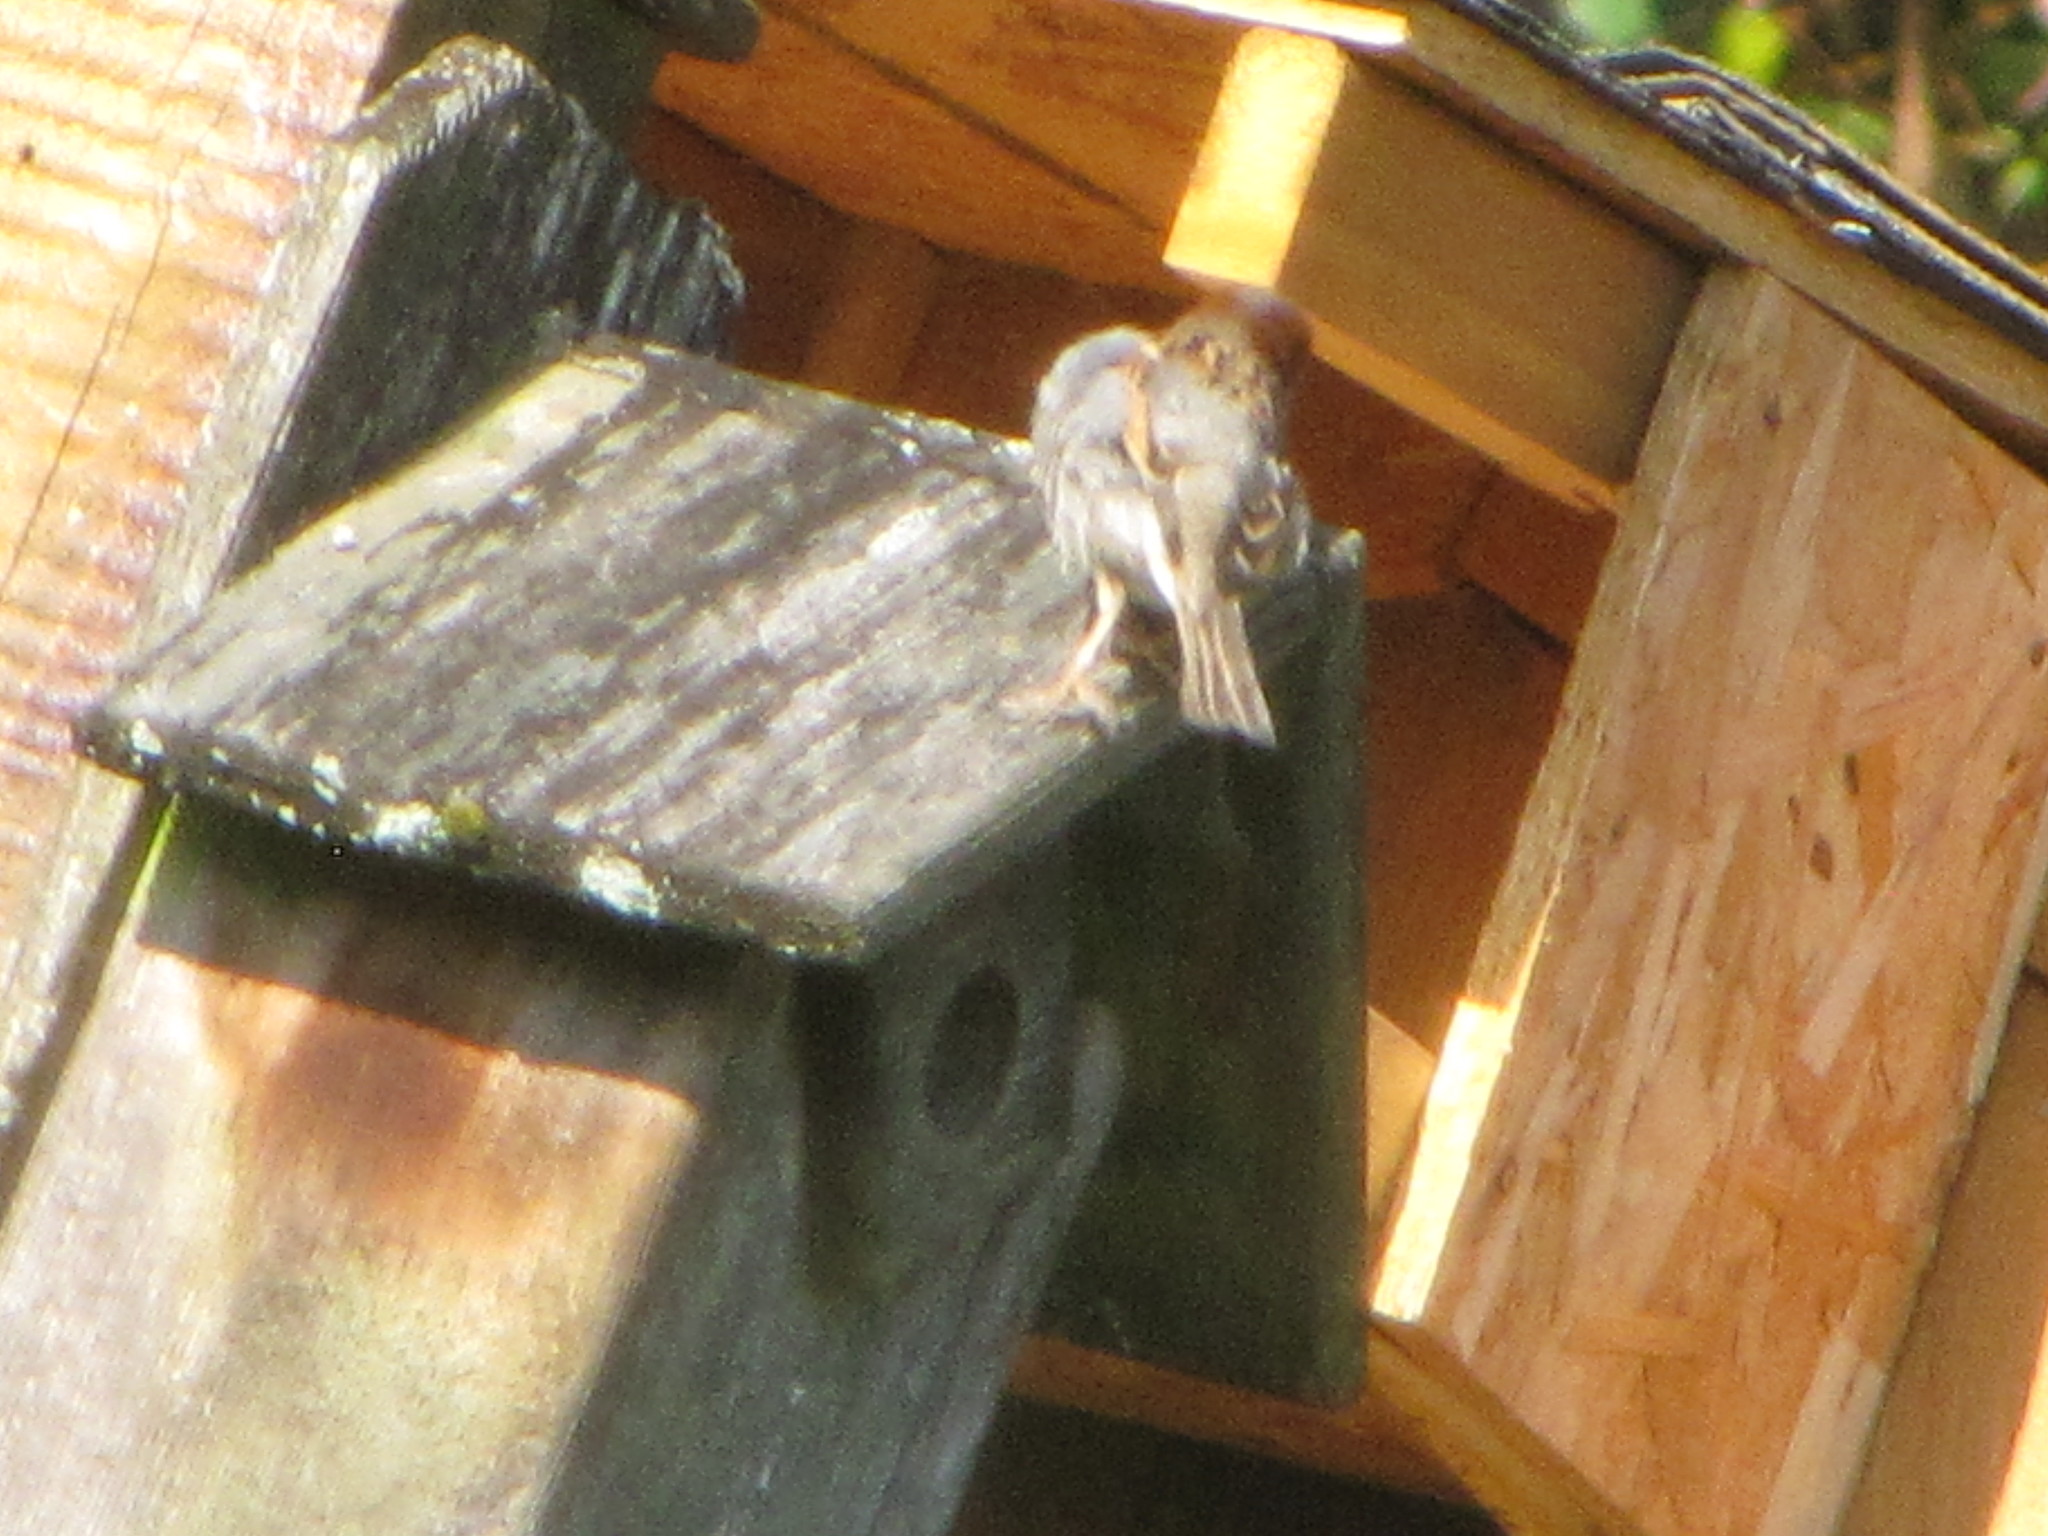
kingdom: Animalia
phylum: Chordata
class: Aves
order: Passeriformes
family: Passeridae
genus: Passer
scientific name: Passer domesticus
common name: House sparrow
